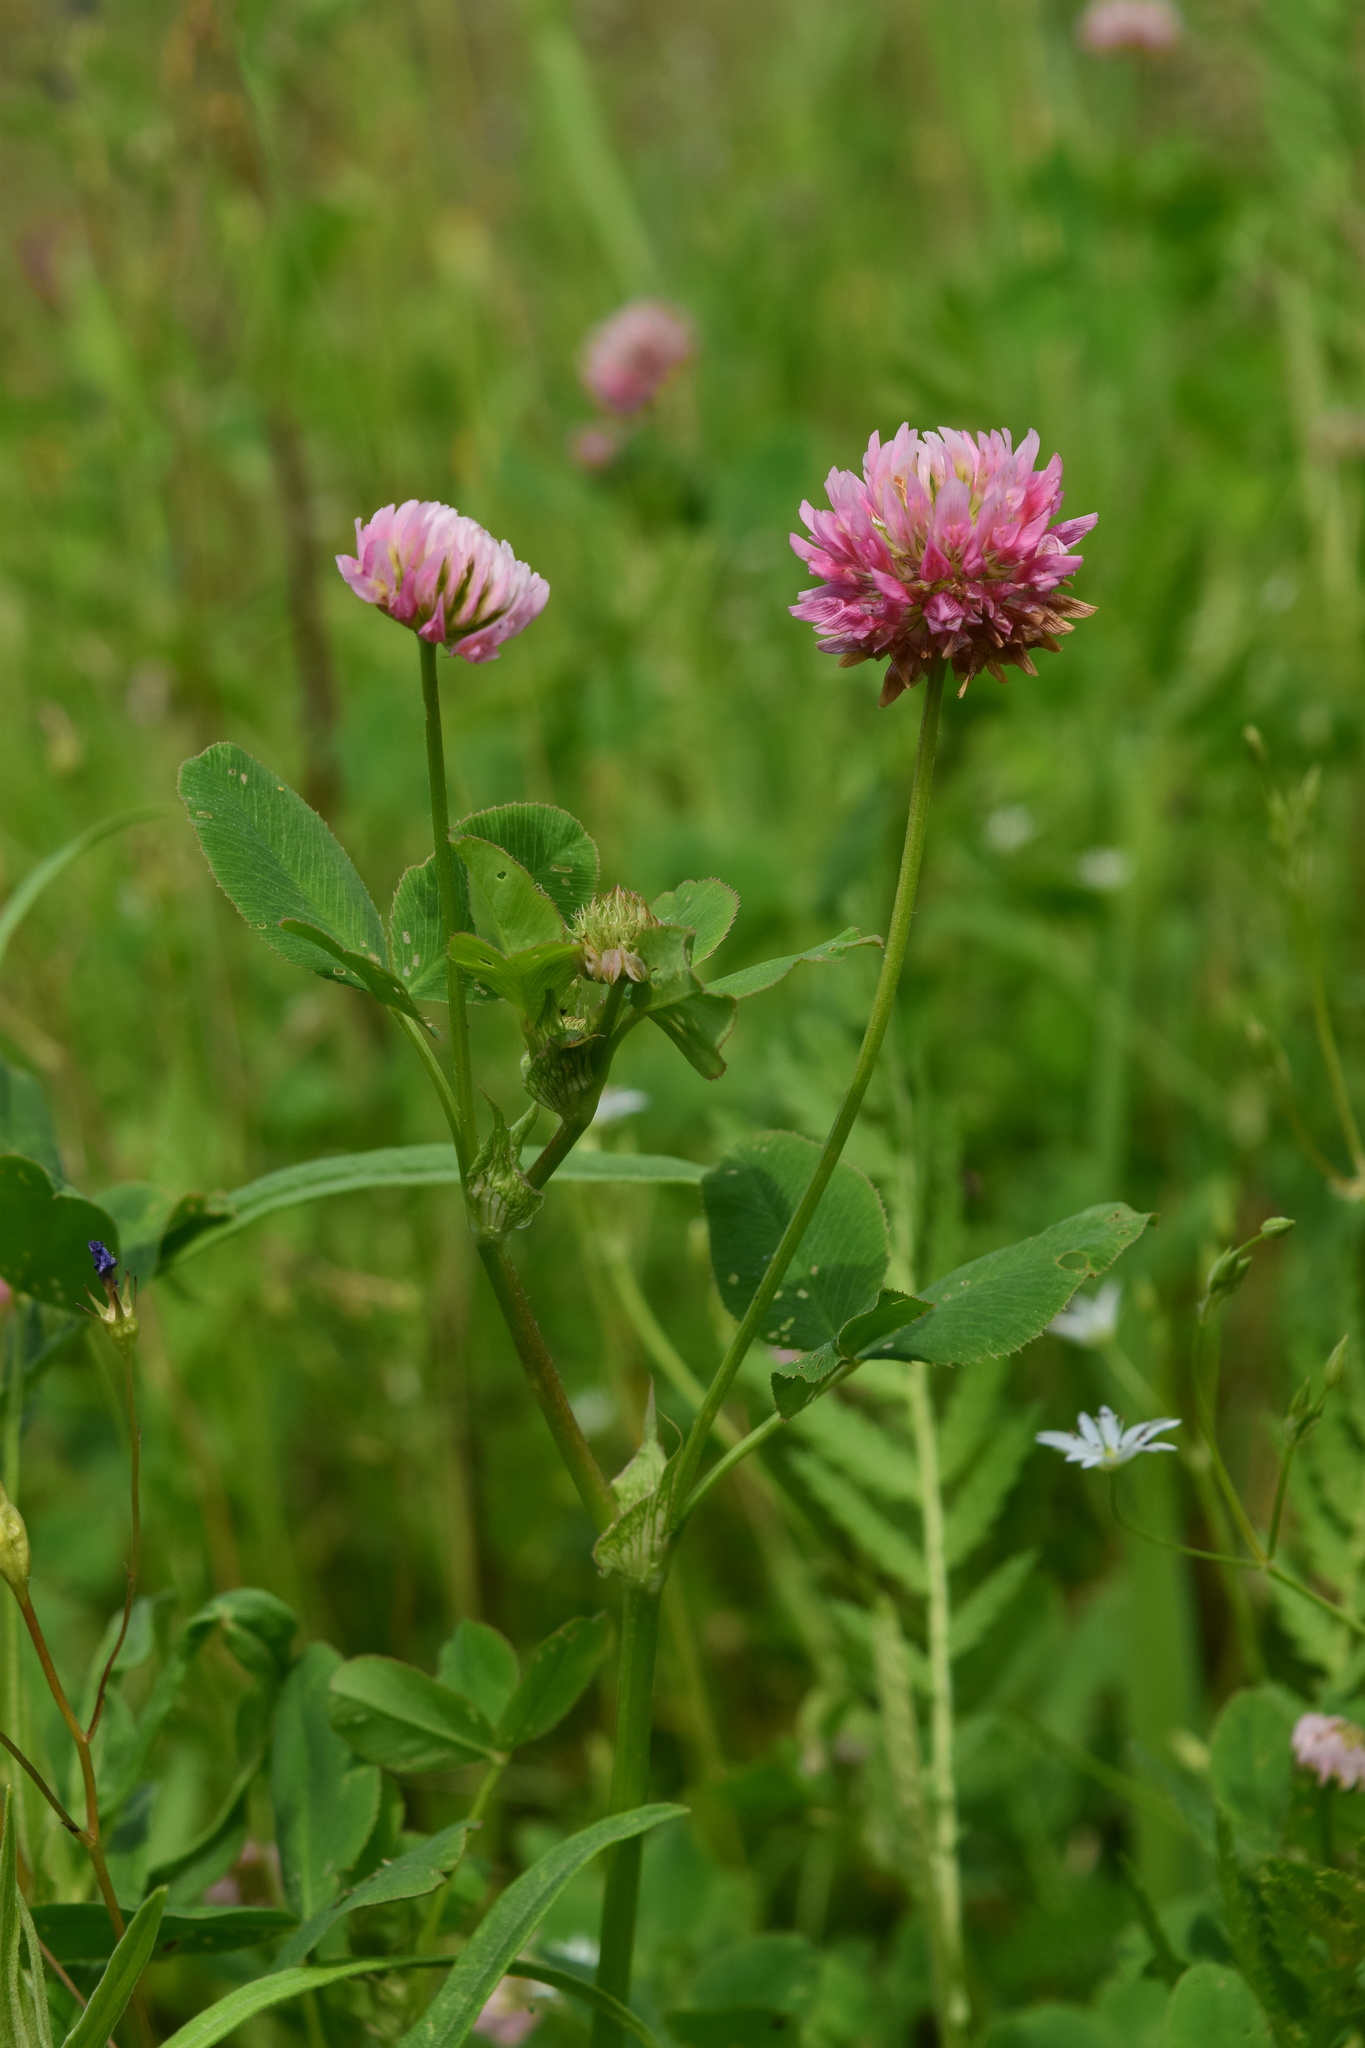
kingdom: Plantae
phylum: Tracheophyta
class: Magnoliopsida
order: Fabales
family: Fabaceae
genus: Trifolium
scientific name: Trifolium hybridum
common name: Alsike clover
